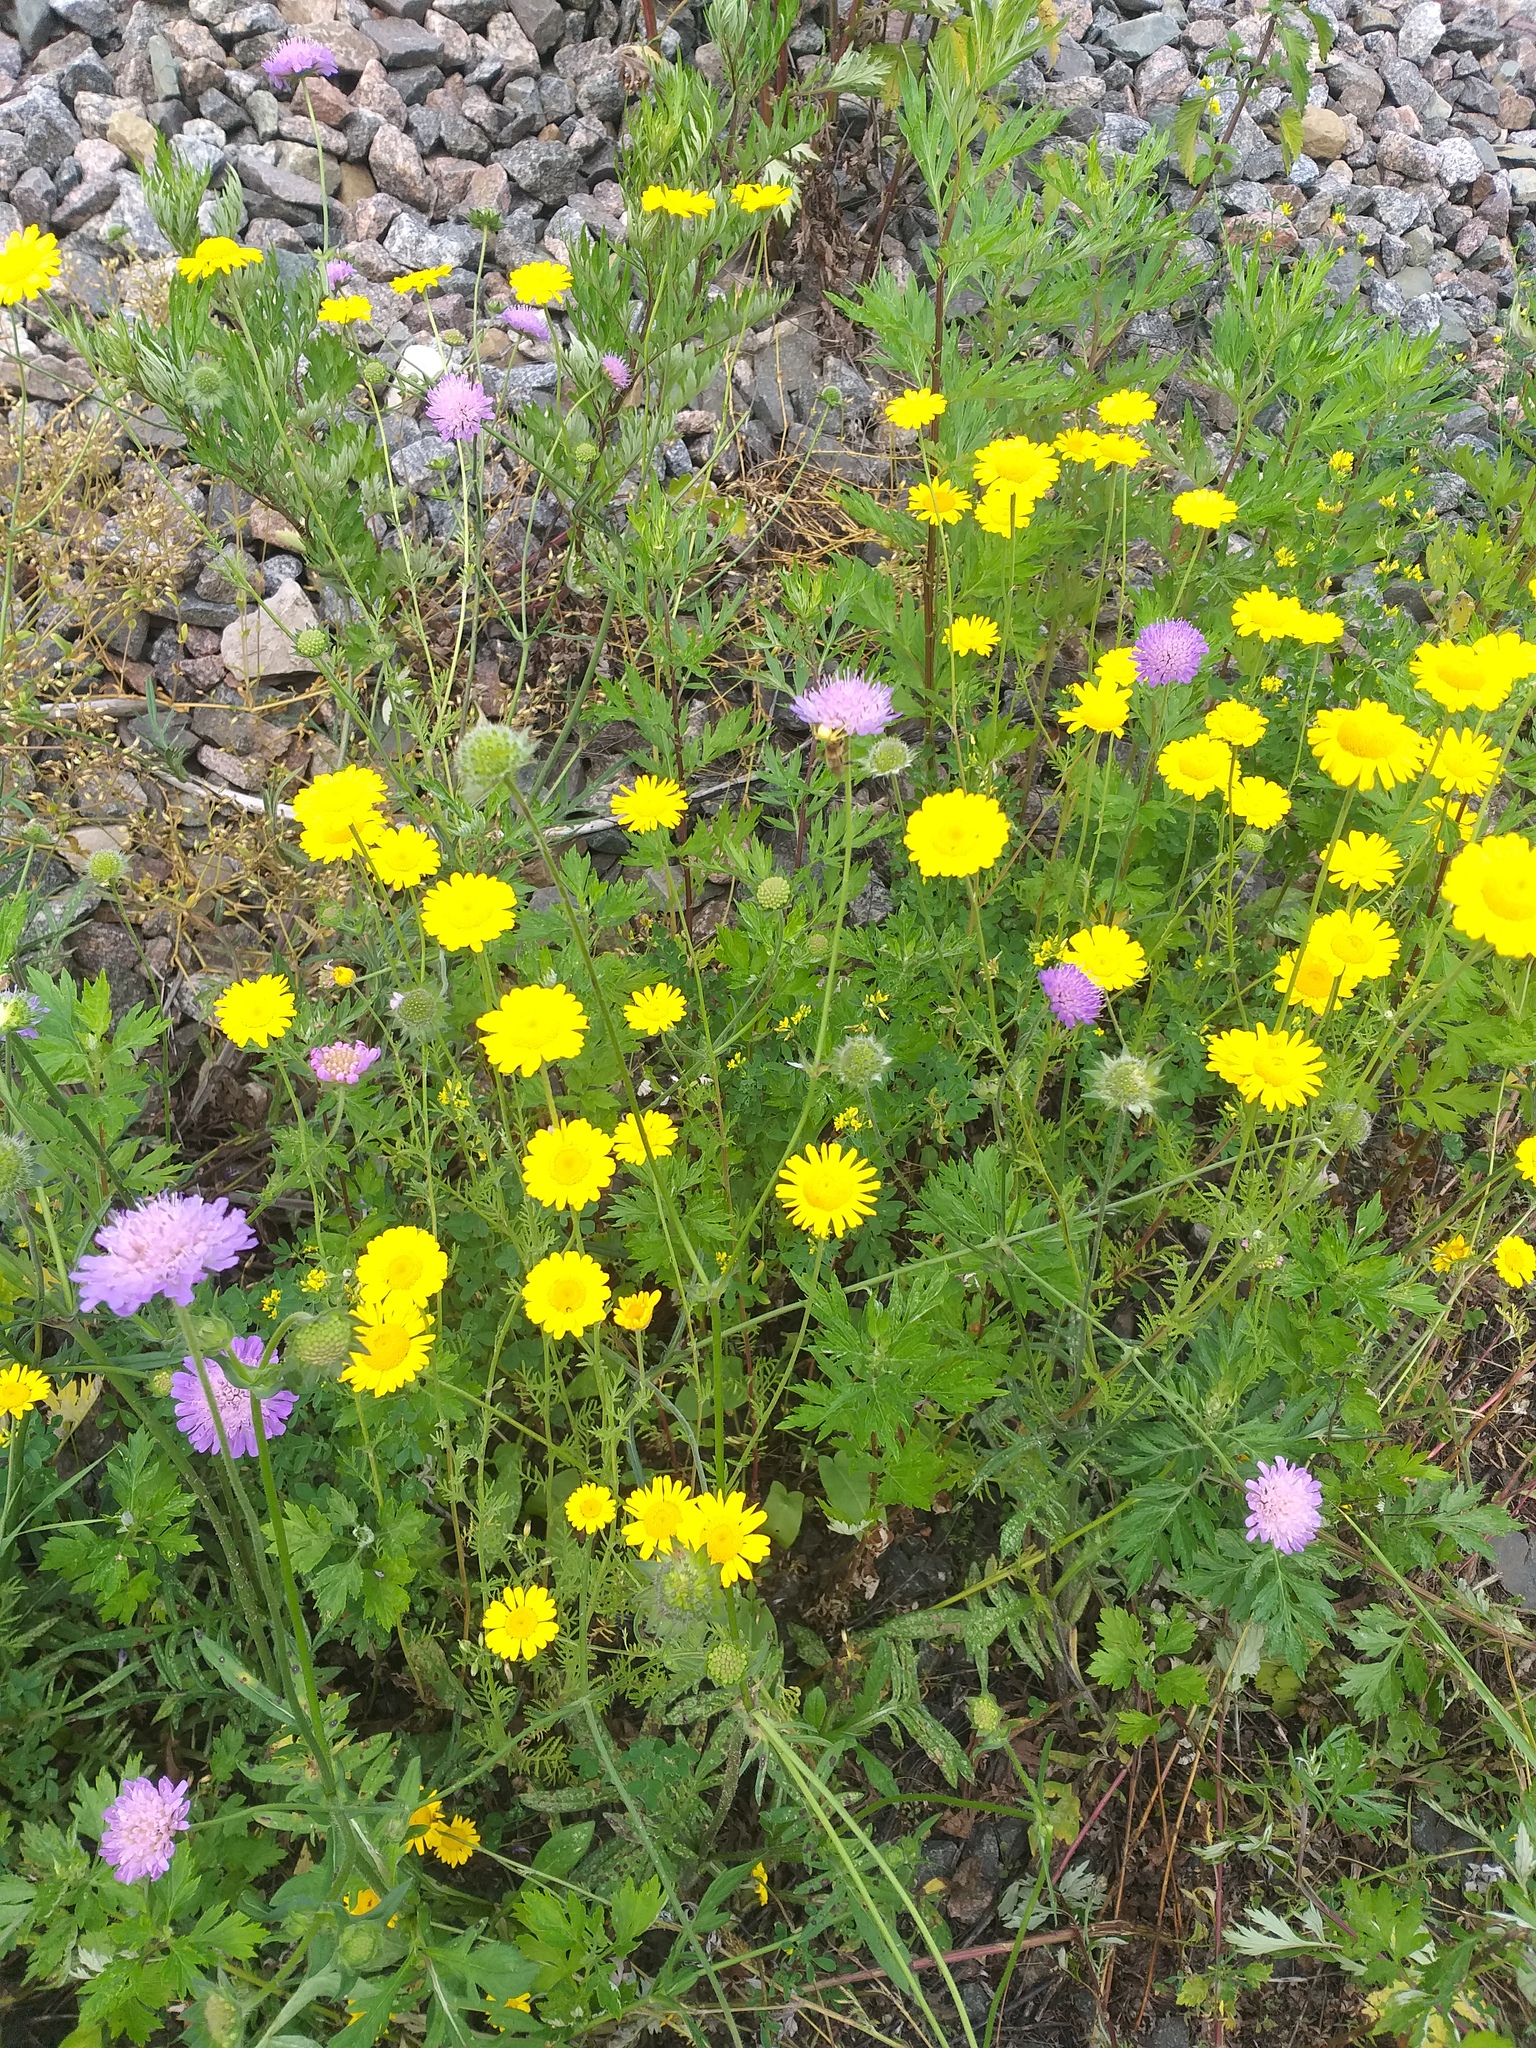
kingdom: Plantae
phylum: Tracheophyta
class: Magnoliopsida
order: Asterales
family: Asteraceae
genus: Cota
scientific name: Cota tinctoria
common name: Golden chamomile
